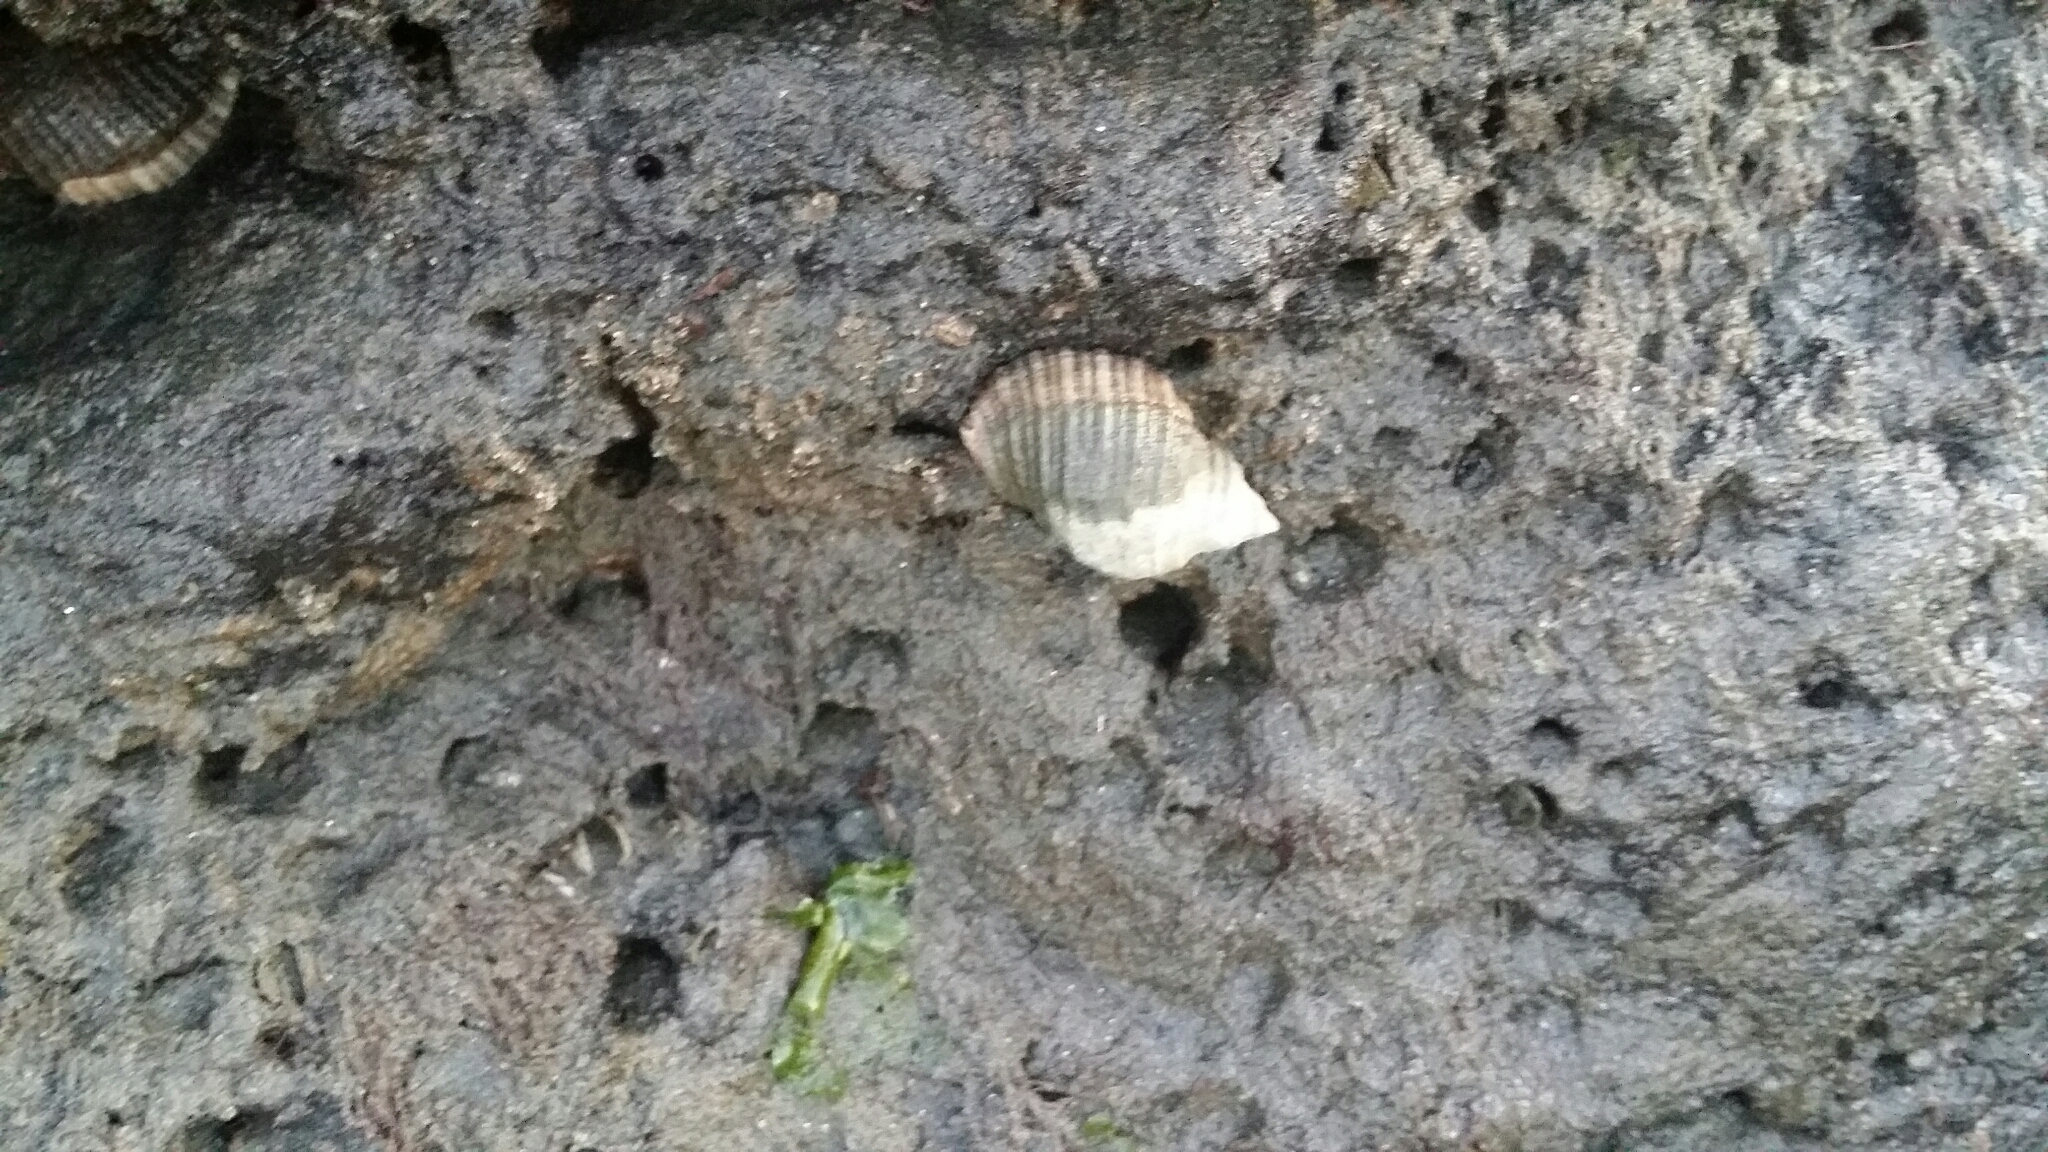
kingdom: Animalia
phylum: Mollusca
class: Gastropoda
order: Neogastropoda
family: Muricidae
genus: Dicathais
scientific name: Dicathais orbita
